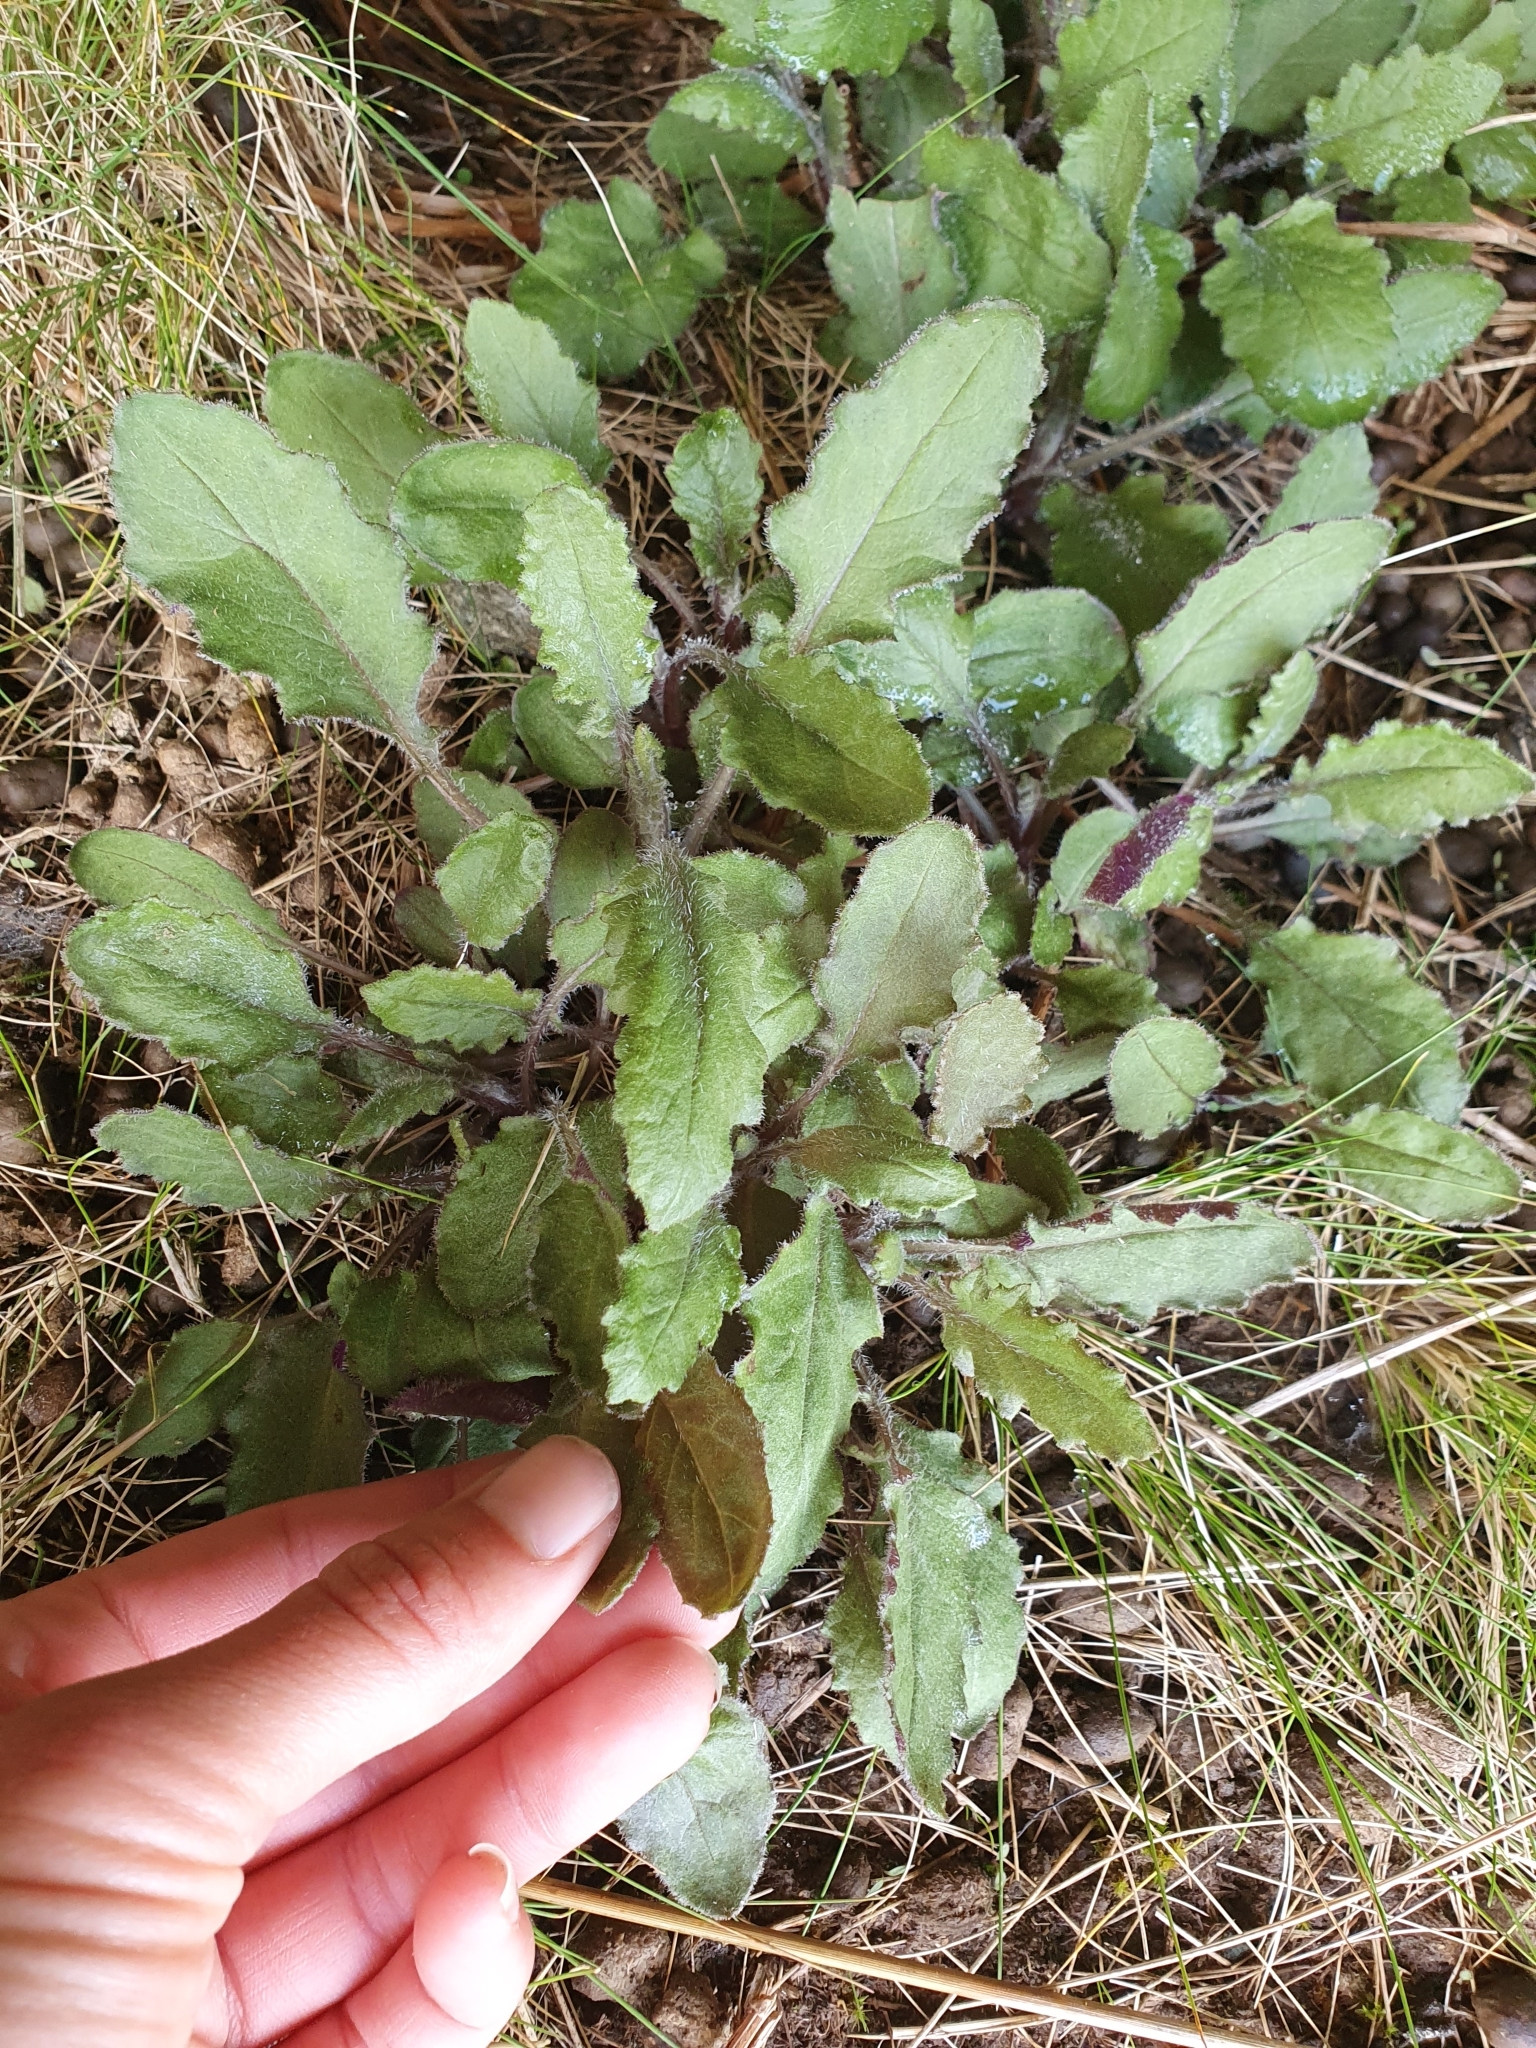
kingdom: Plantae
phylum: Tracheophyta
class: Magnoliopsida
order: Asterales
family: Asteraceae
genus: Senecio
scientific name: Senecio wairauensis
